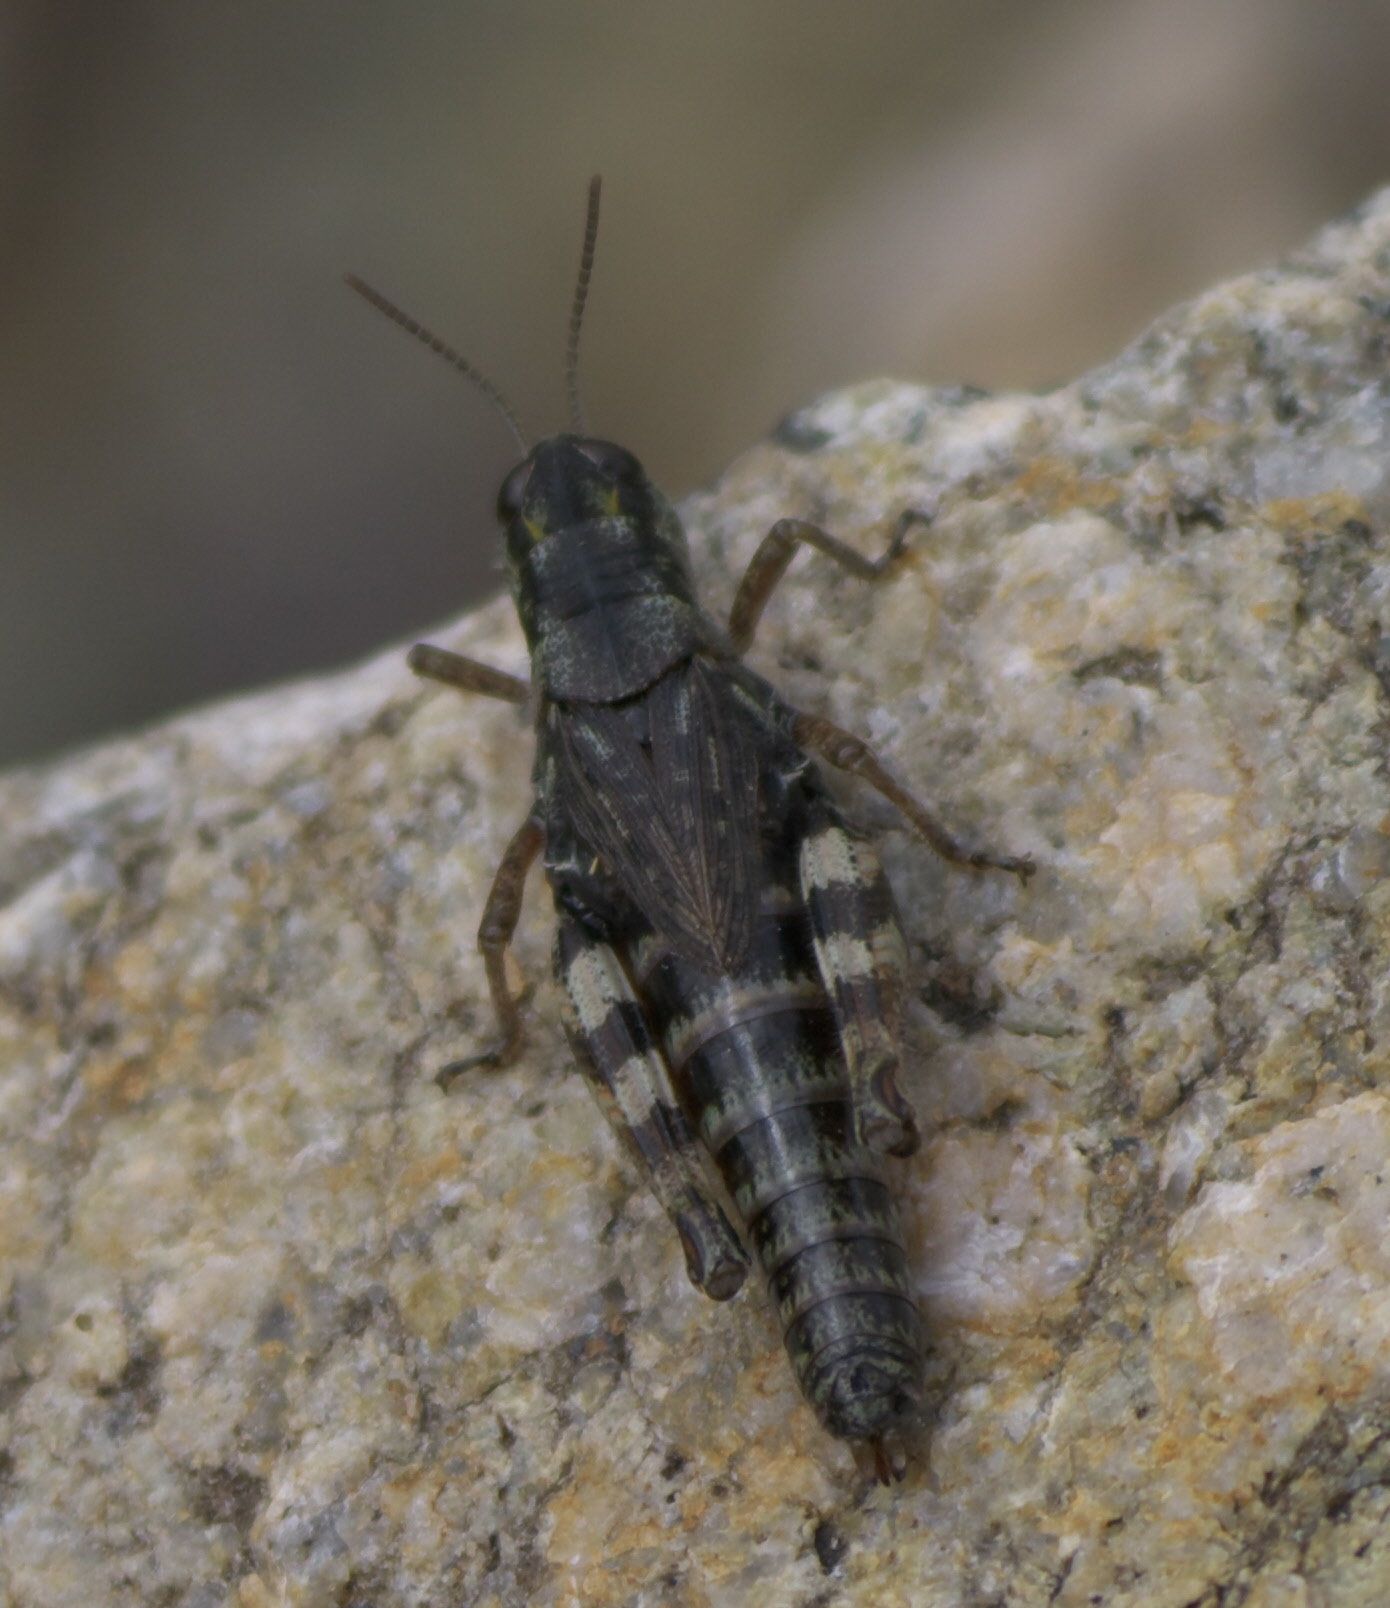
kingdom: Animalia
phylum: Arthropoda
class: Insecta
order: Orthoptera
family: Acrididae
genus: Melanoplus
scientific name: Melanoplus gothicus
